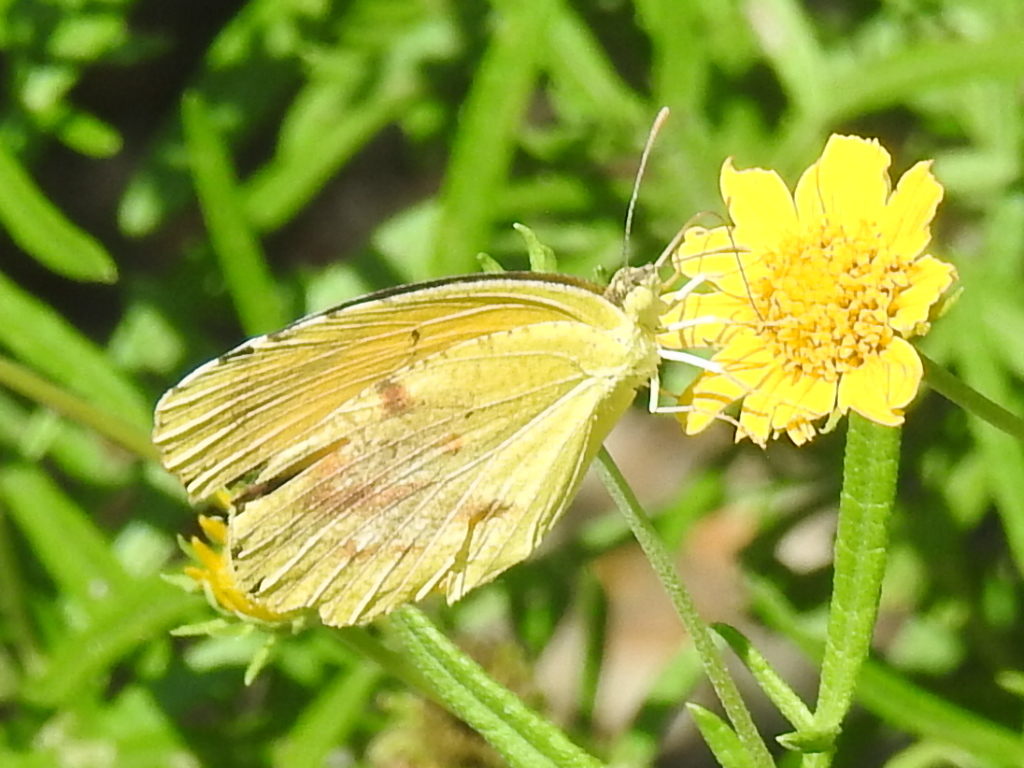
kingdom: Animalia
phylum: Arthropoda
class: Insecta
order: Lepidoptera
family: Pieridae
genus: Abaeis
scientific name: Abaeis nicippe
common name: Sleepy orange
